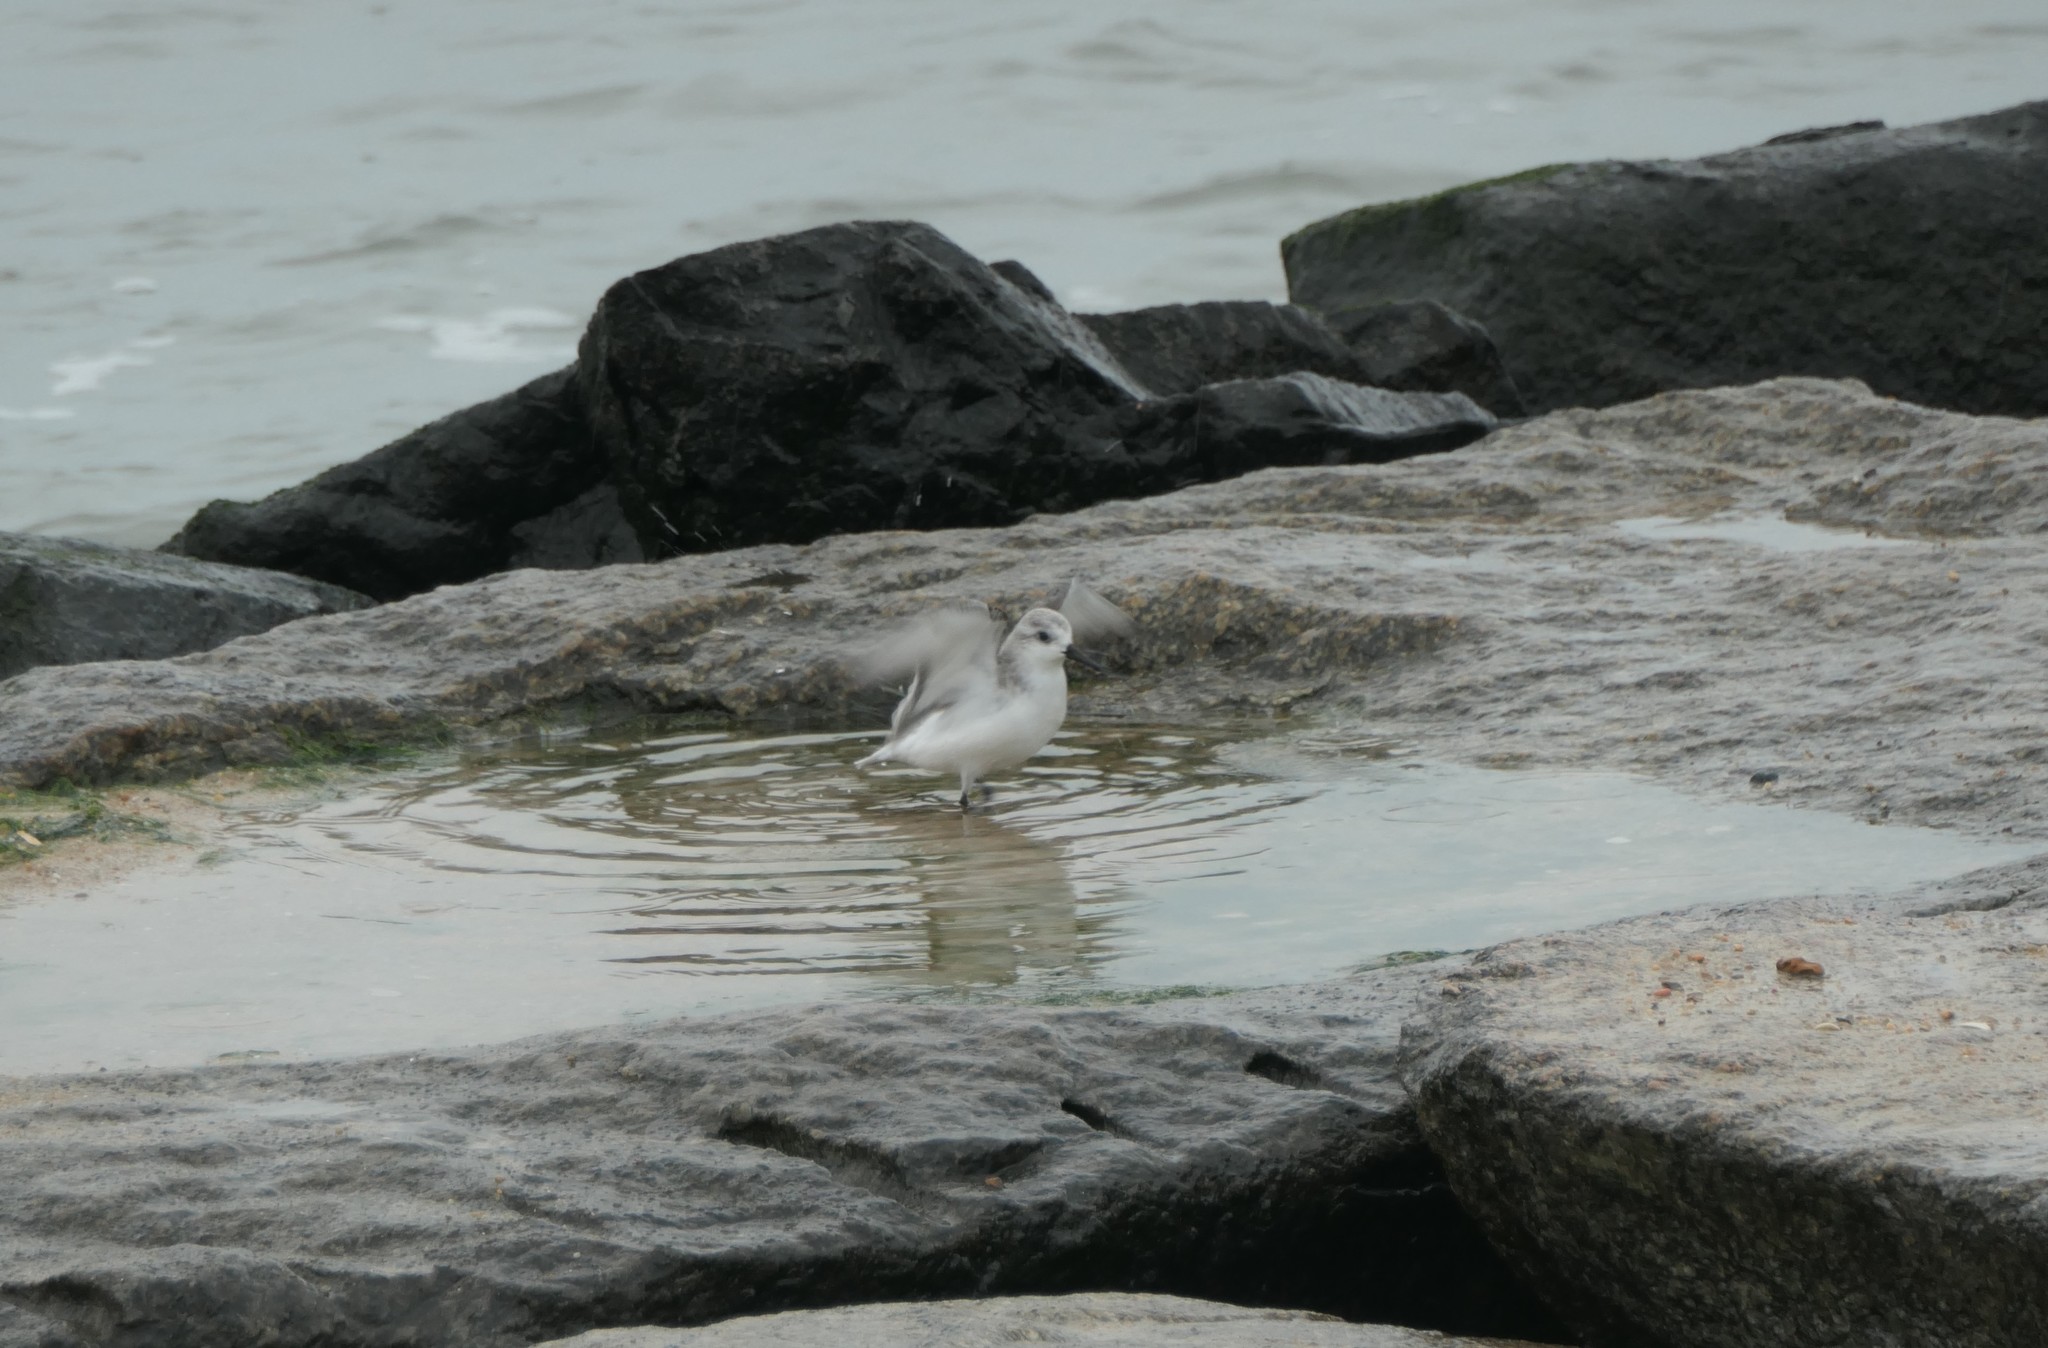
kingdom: Animalia
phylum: Chordata
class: Aves
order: Charadriiformes
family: Scolopacidae
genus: Calidris
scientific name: Calidris alba
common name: Sanderling
